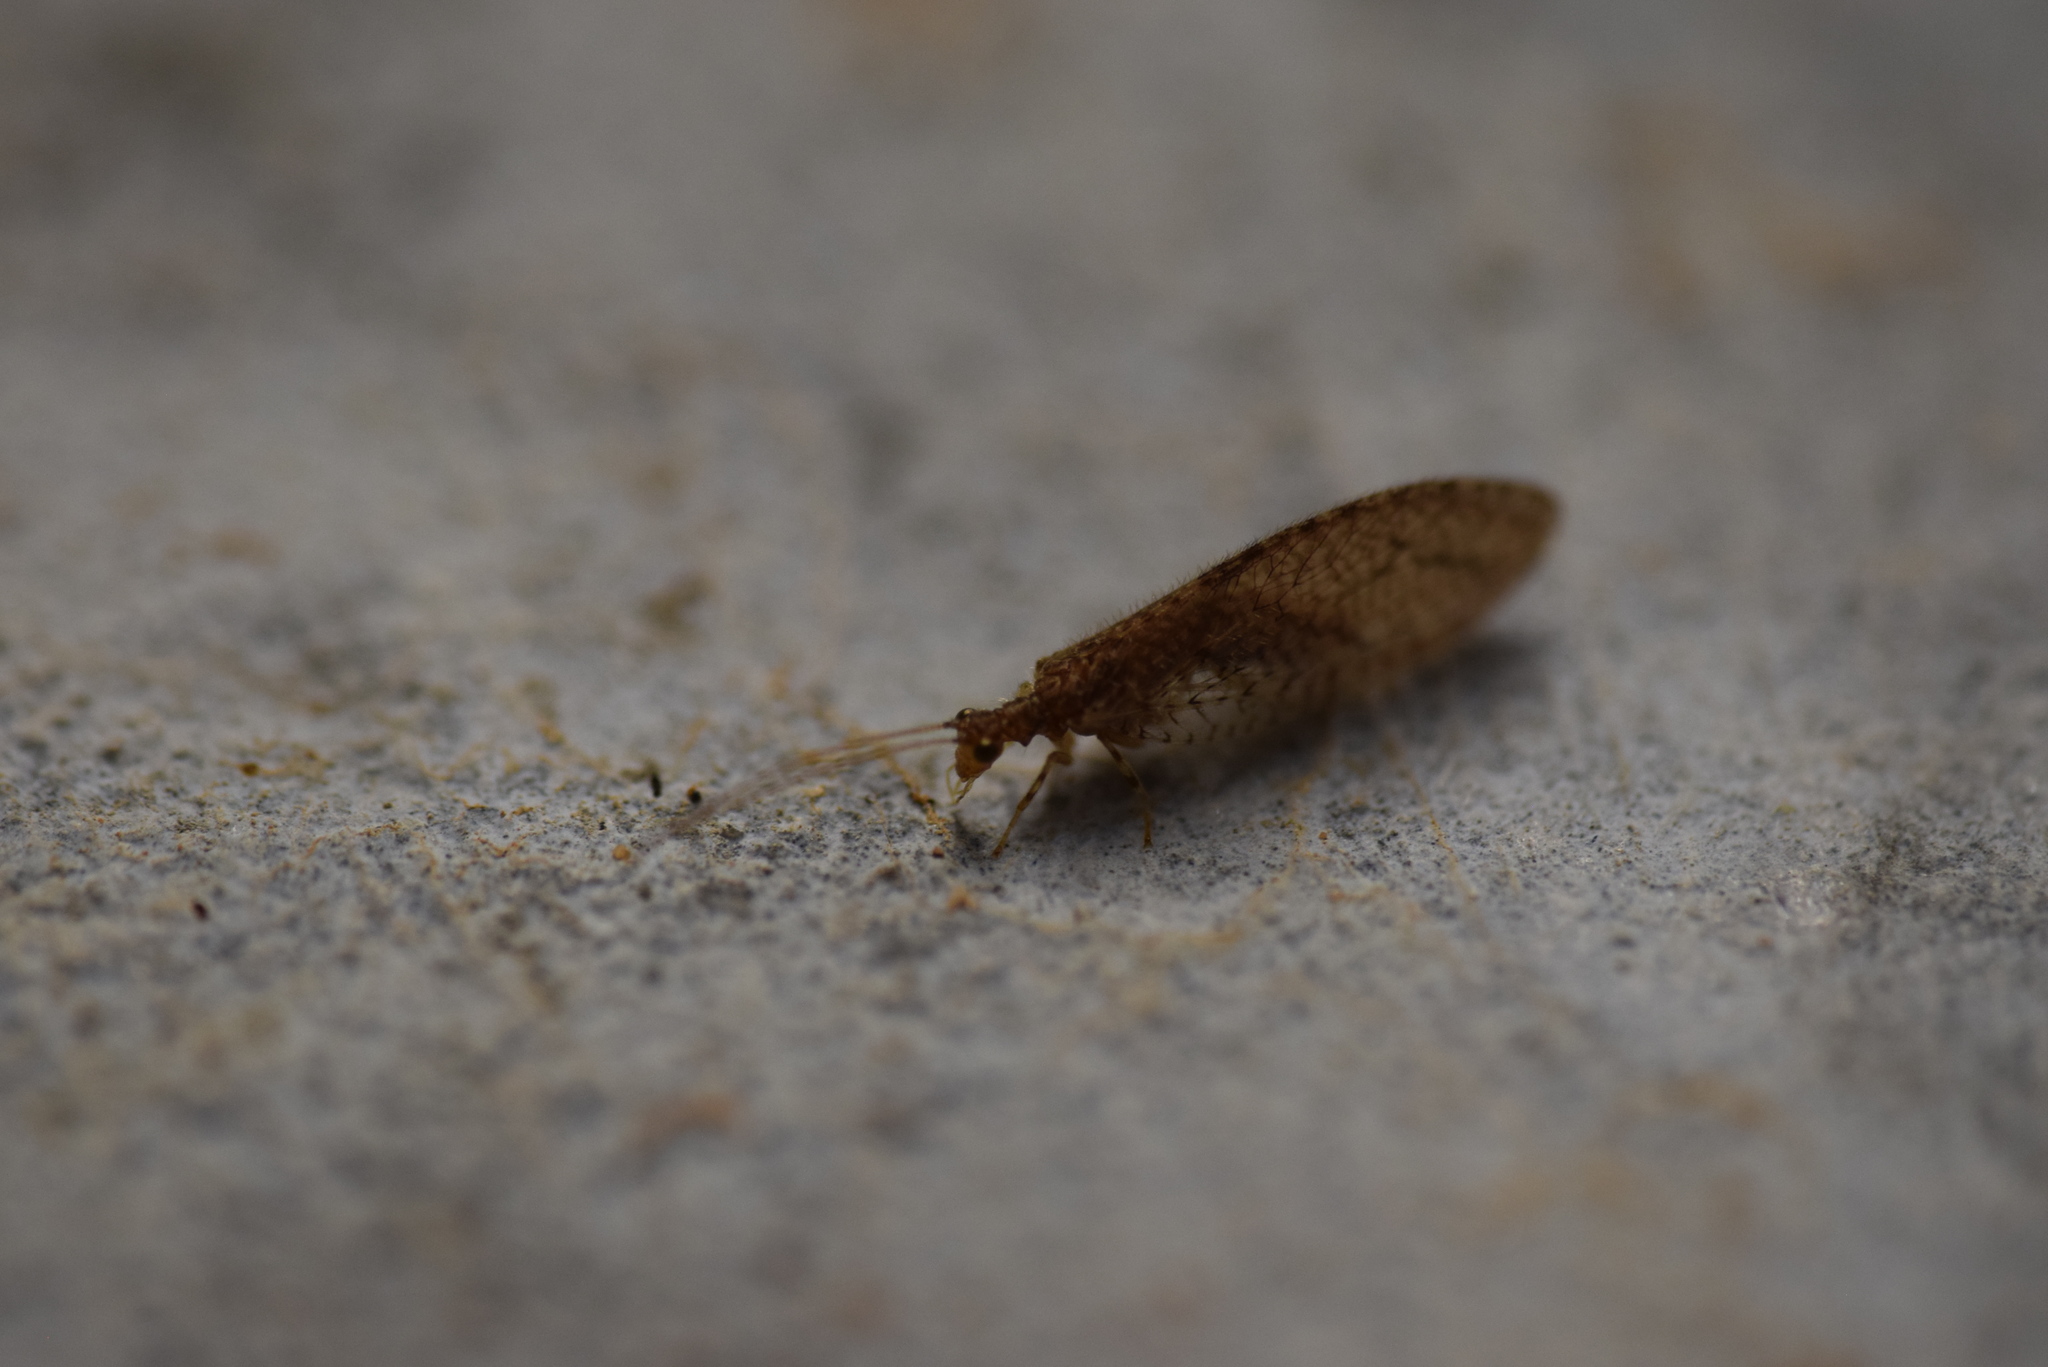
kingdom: Animalia
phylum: Arthropoda
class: Insecta
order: Neuroptera
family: Hemerobiidae
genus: Micromus
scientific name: Micromus posticus
